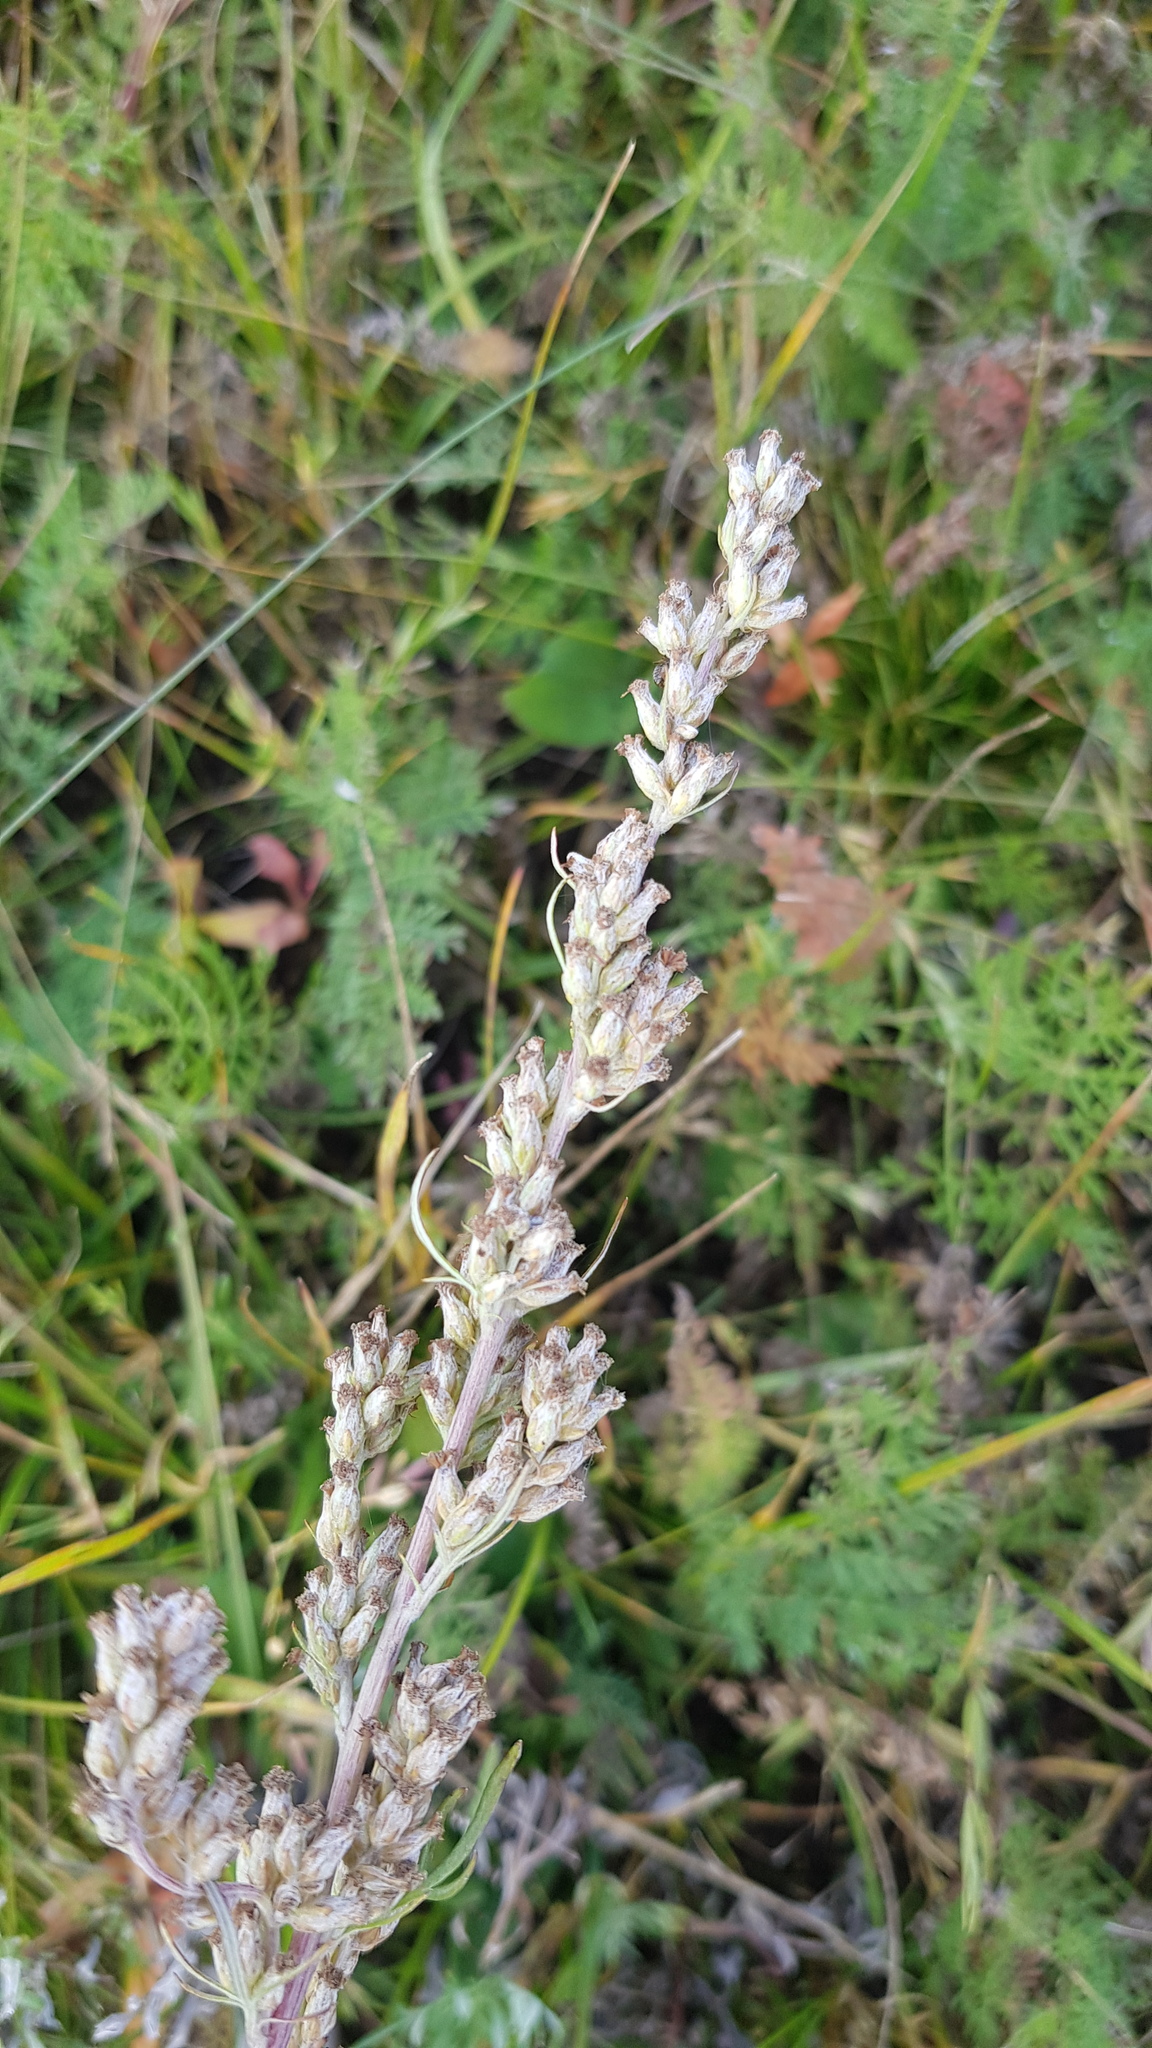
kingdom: Plantae
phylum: Tracheophyta
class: Magnoliopsida
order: Asterales
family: Asteraceae
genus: Artemisia
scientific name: Artemisia vulgaris
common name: Mugwort
